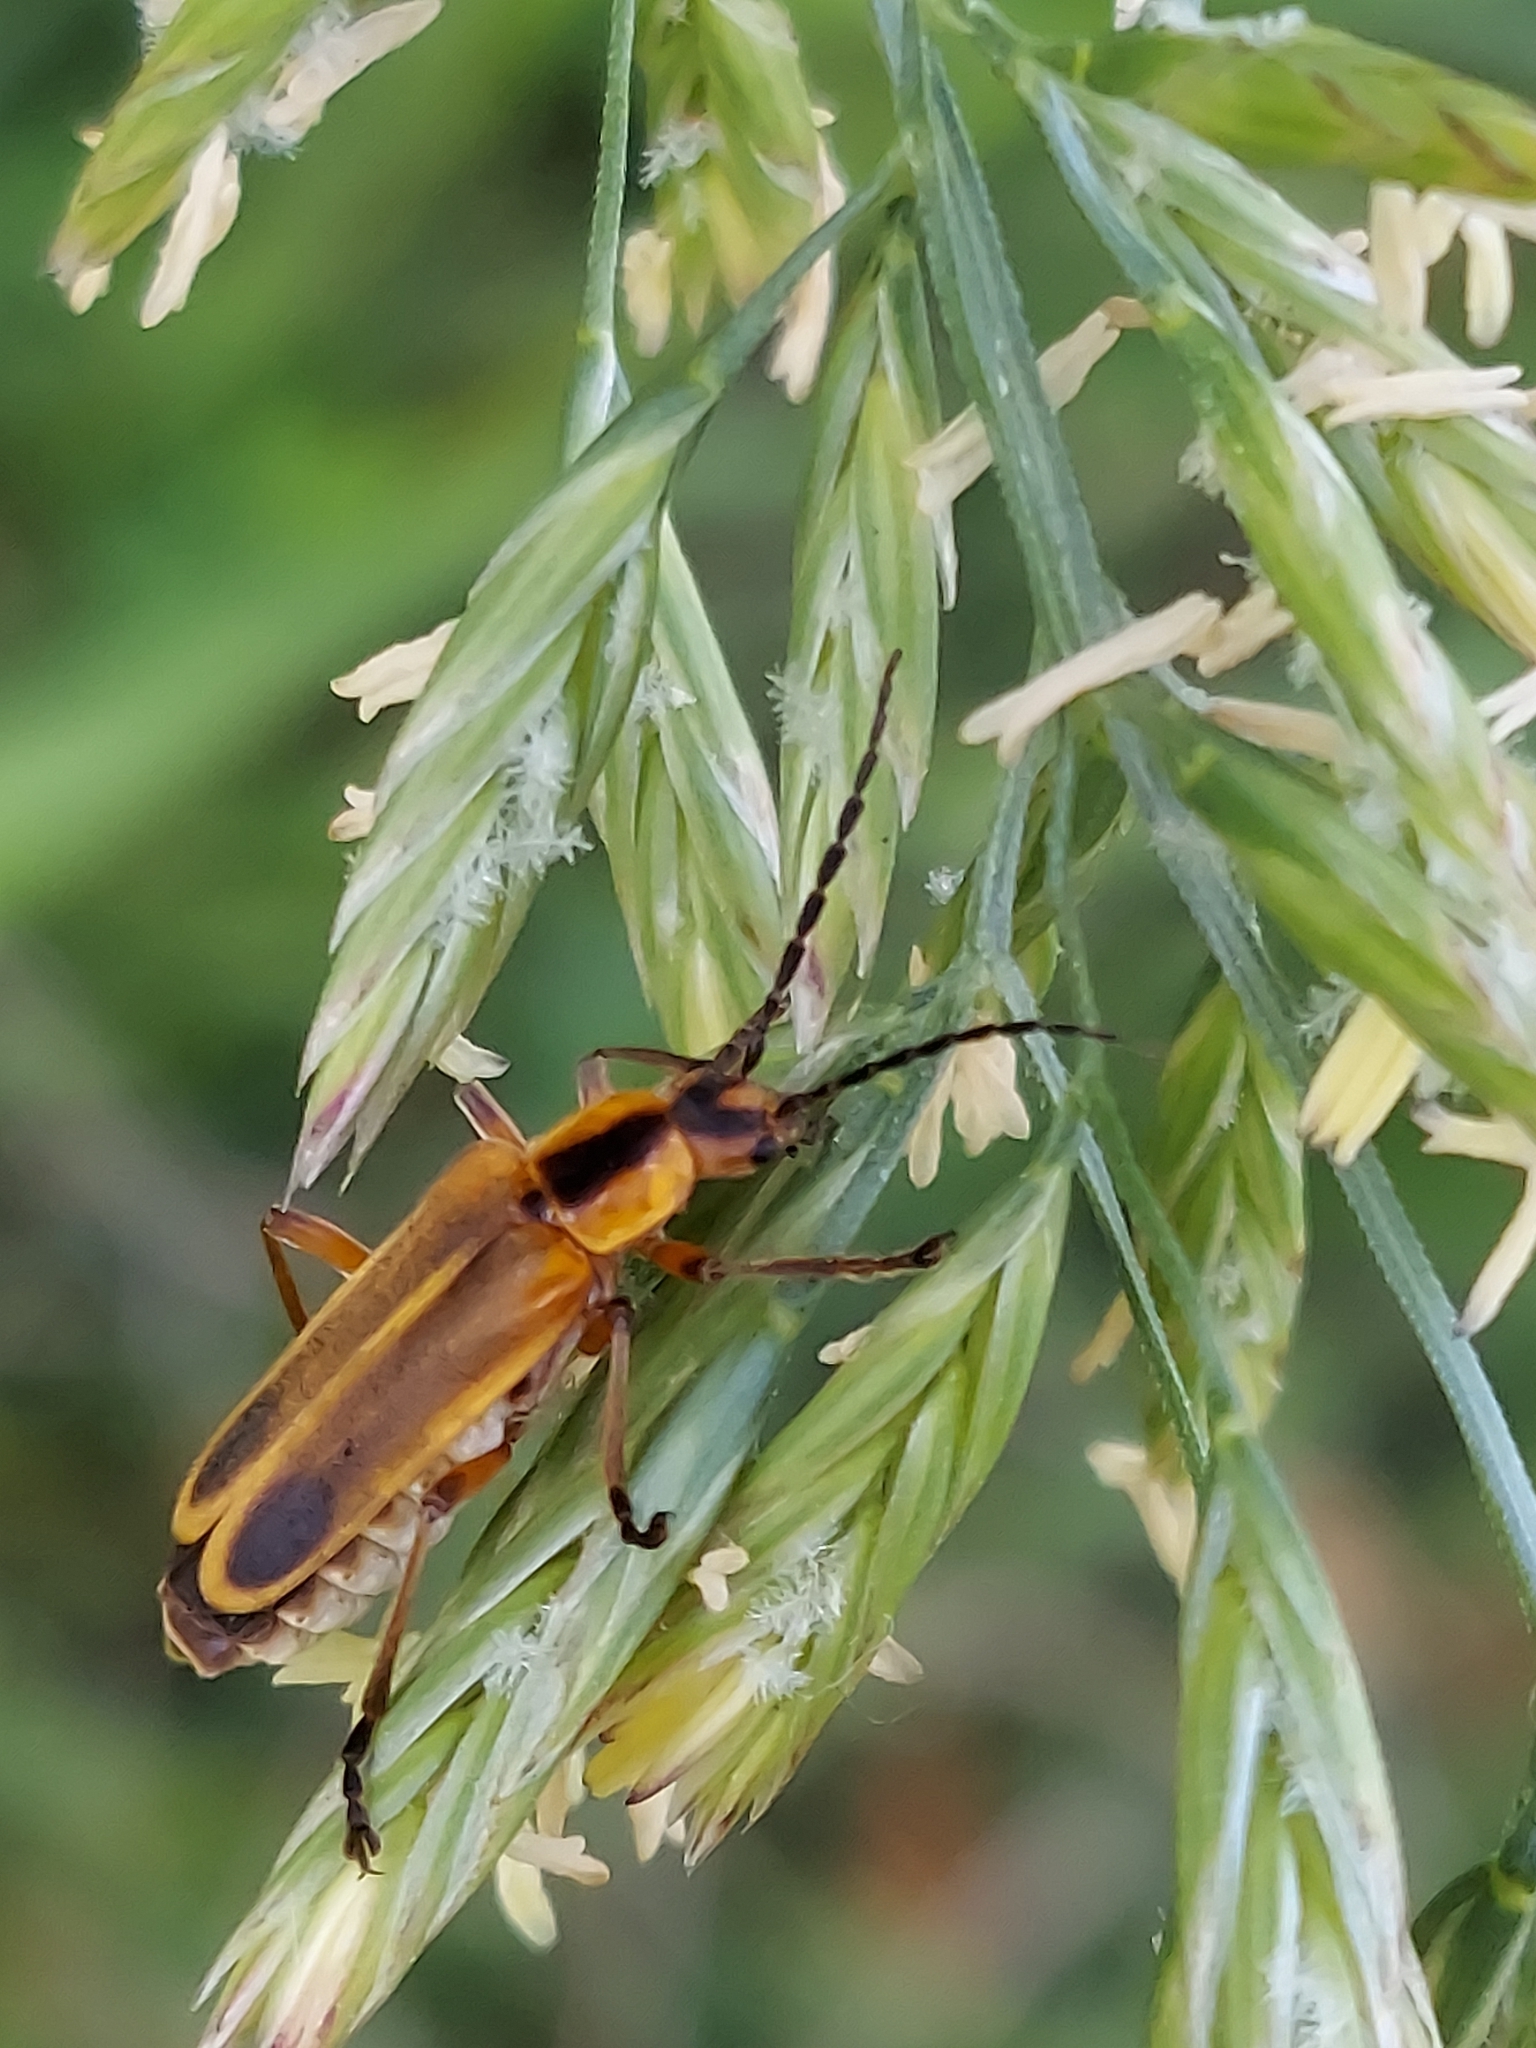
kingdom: Animalia
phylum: Arthropoda
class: Insecta
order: Coleoptera
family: Cantharidae
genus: Chauliognathus
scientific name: Chauliognathus marginatus
